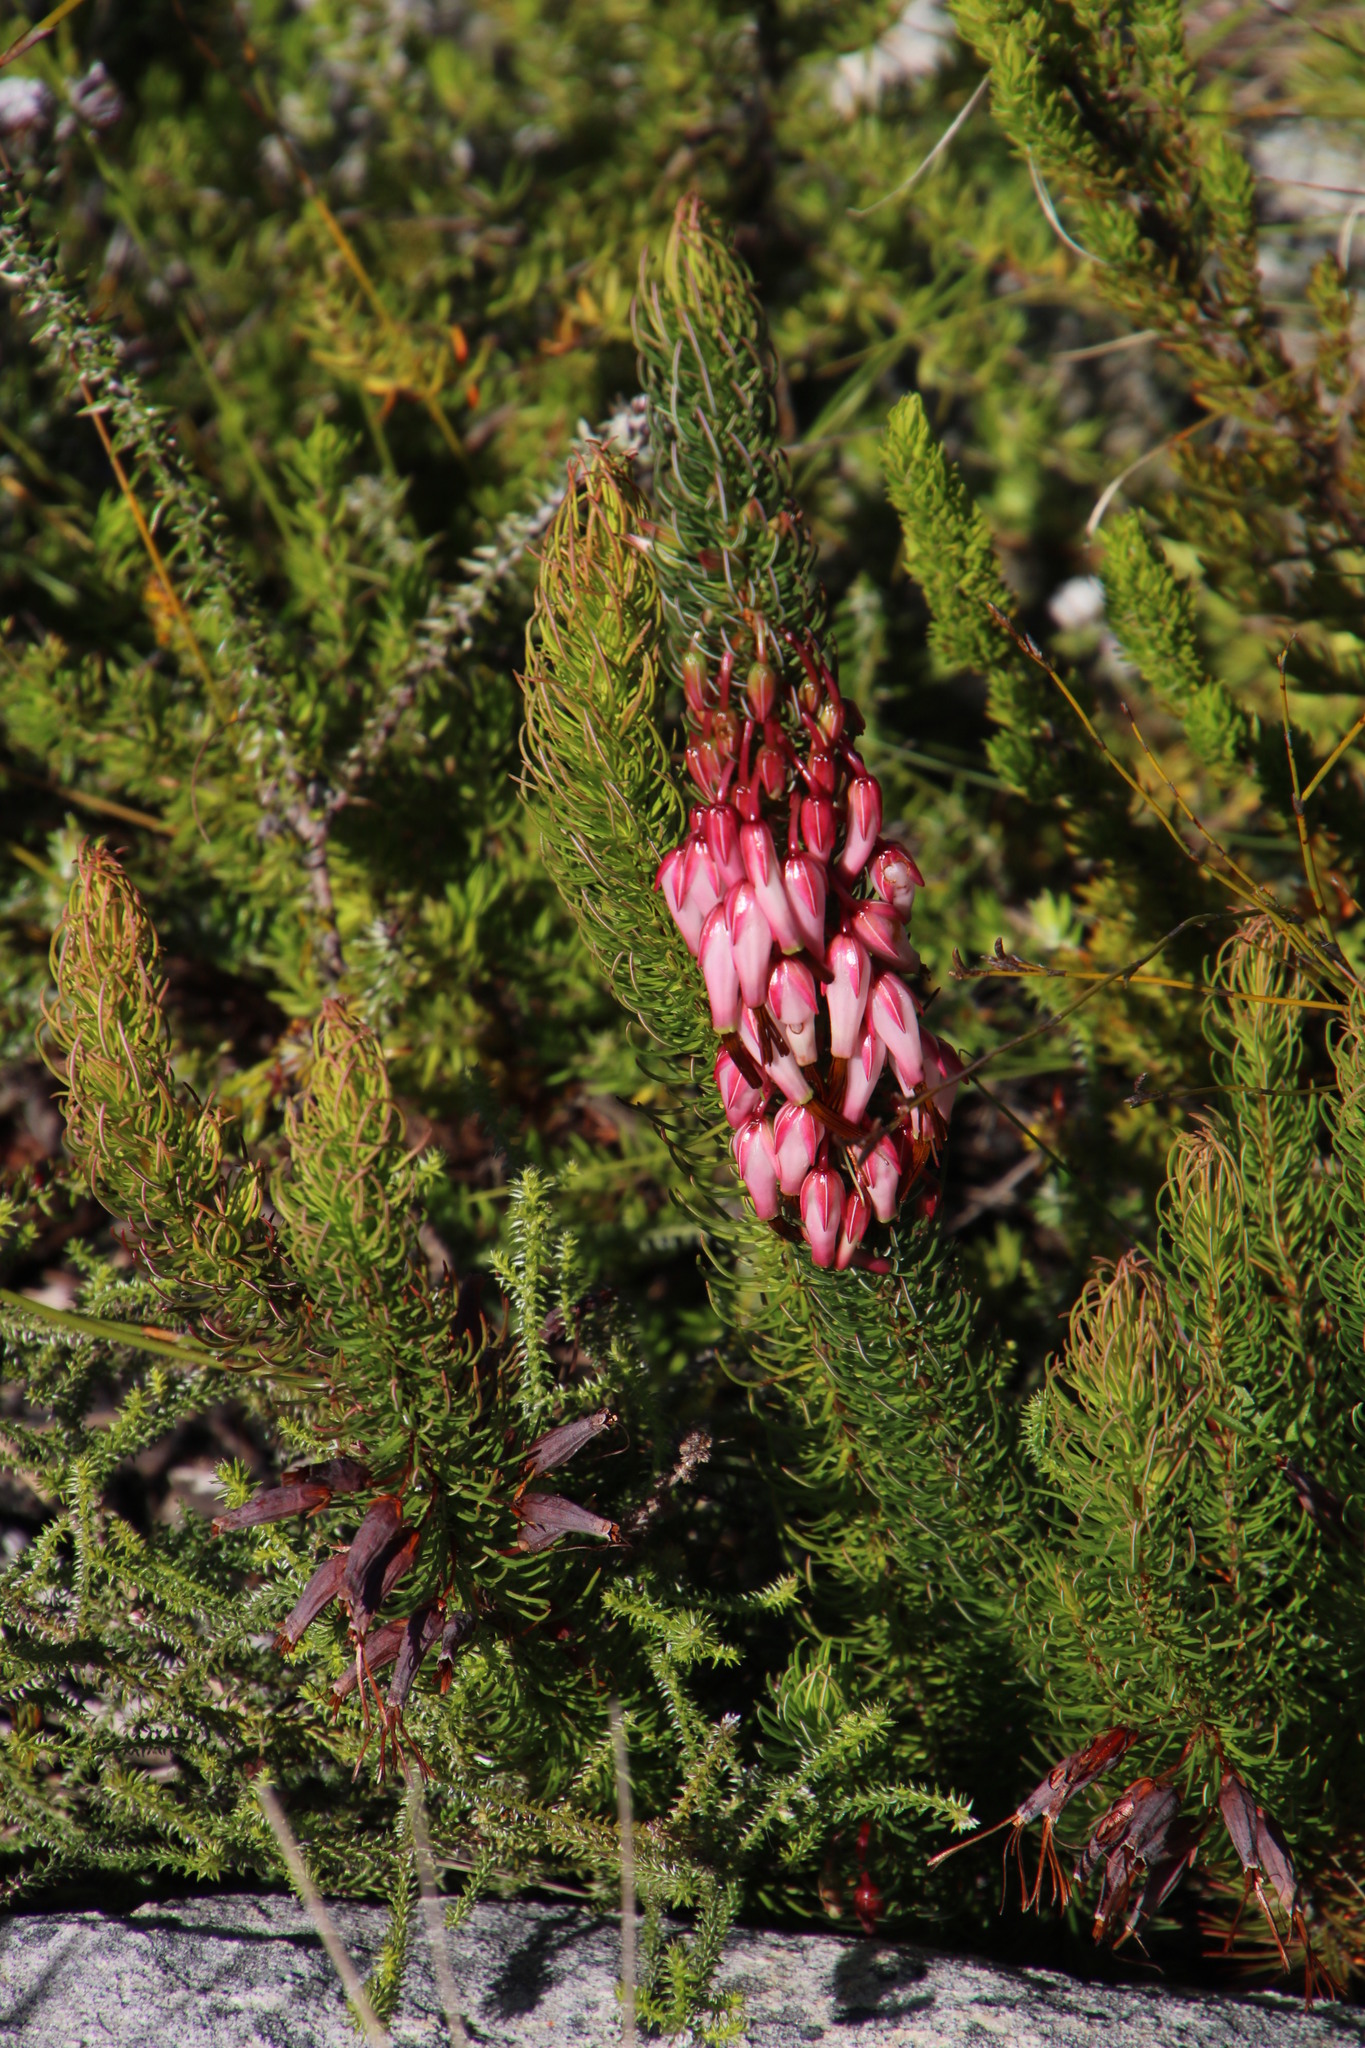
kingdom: Plantae
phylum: Tracheophyta
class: Magnoliopsida
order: Ericales
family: Ericaceae
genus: Erica
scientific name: Erica plukenetii
